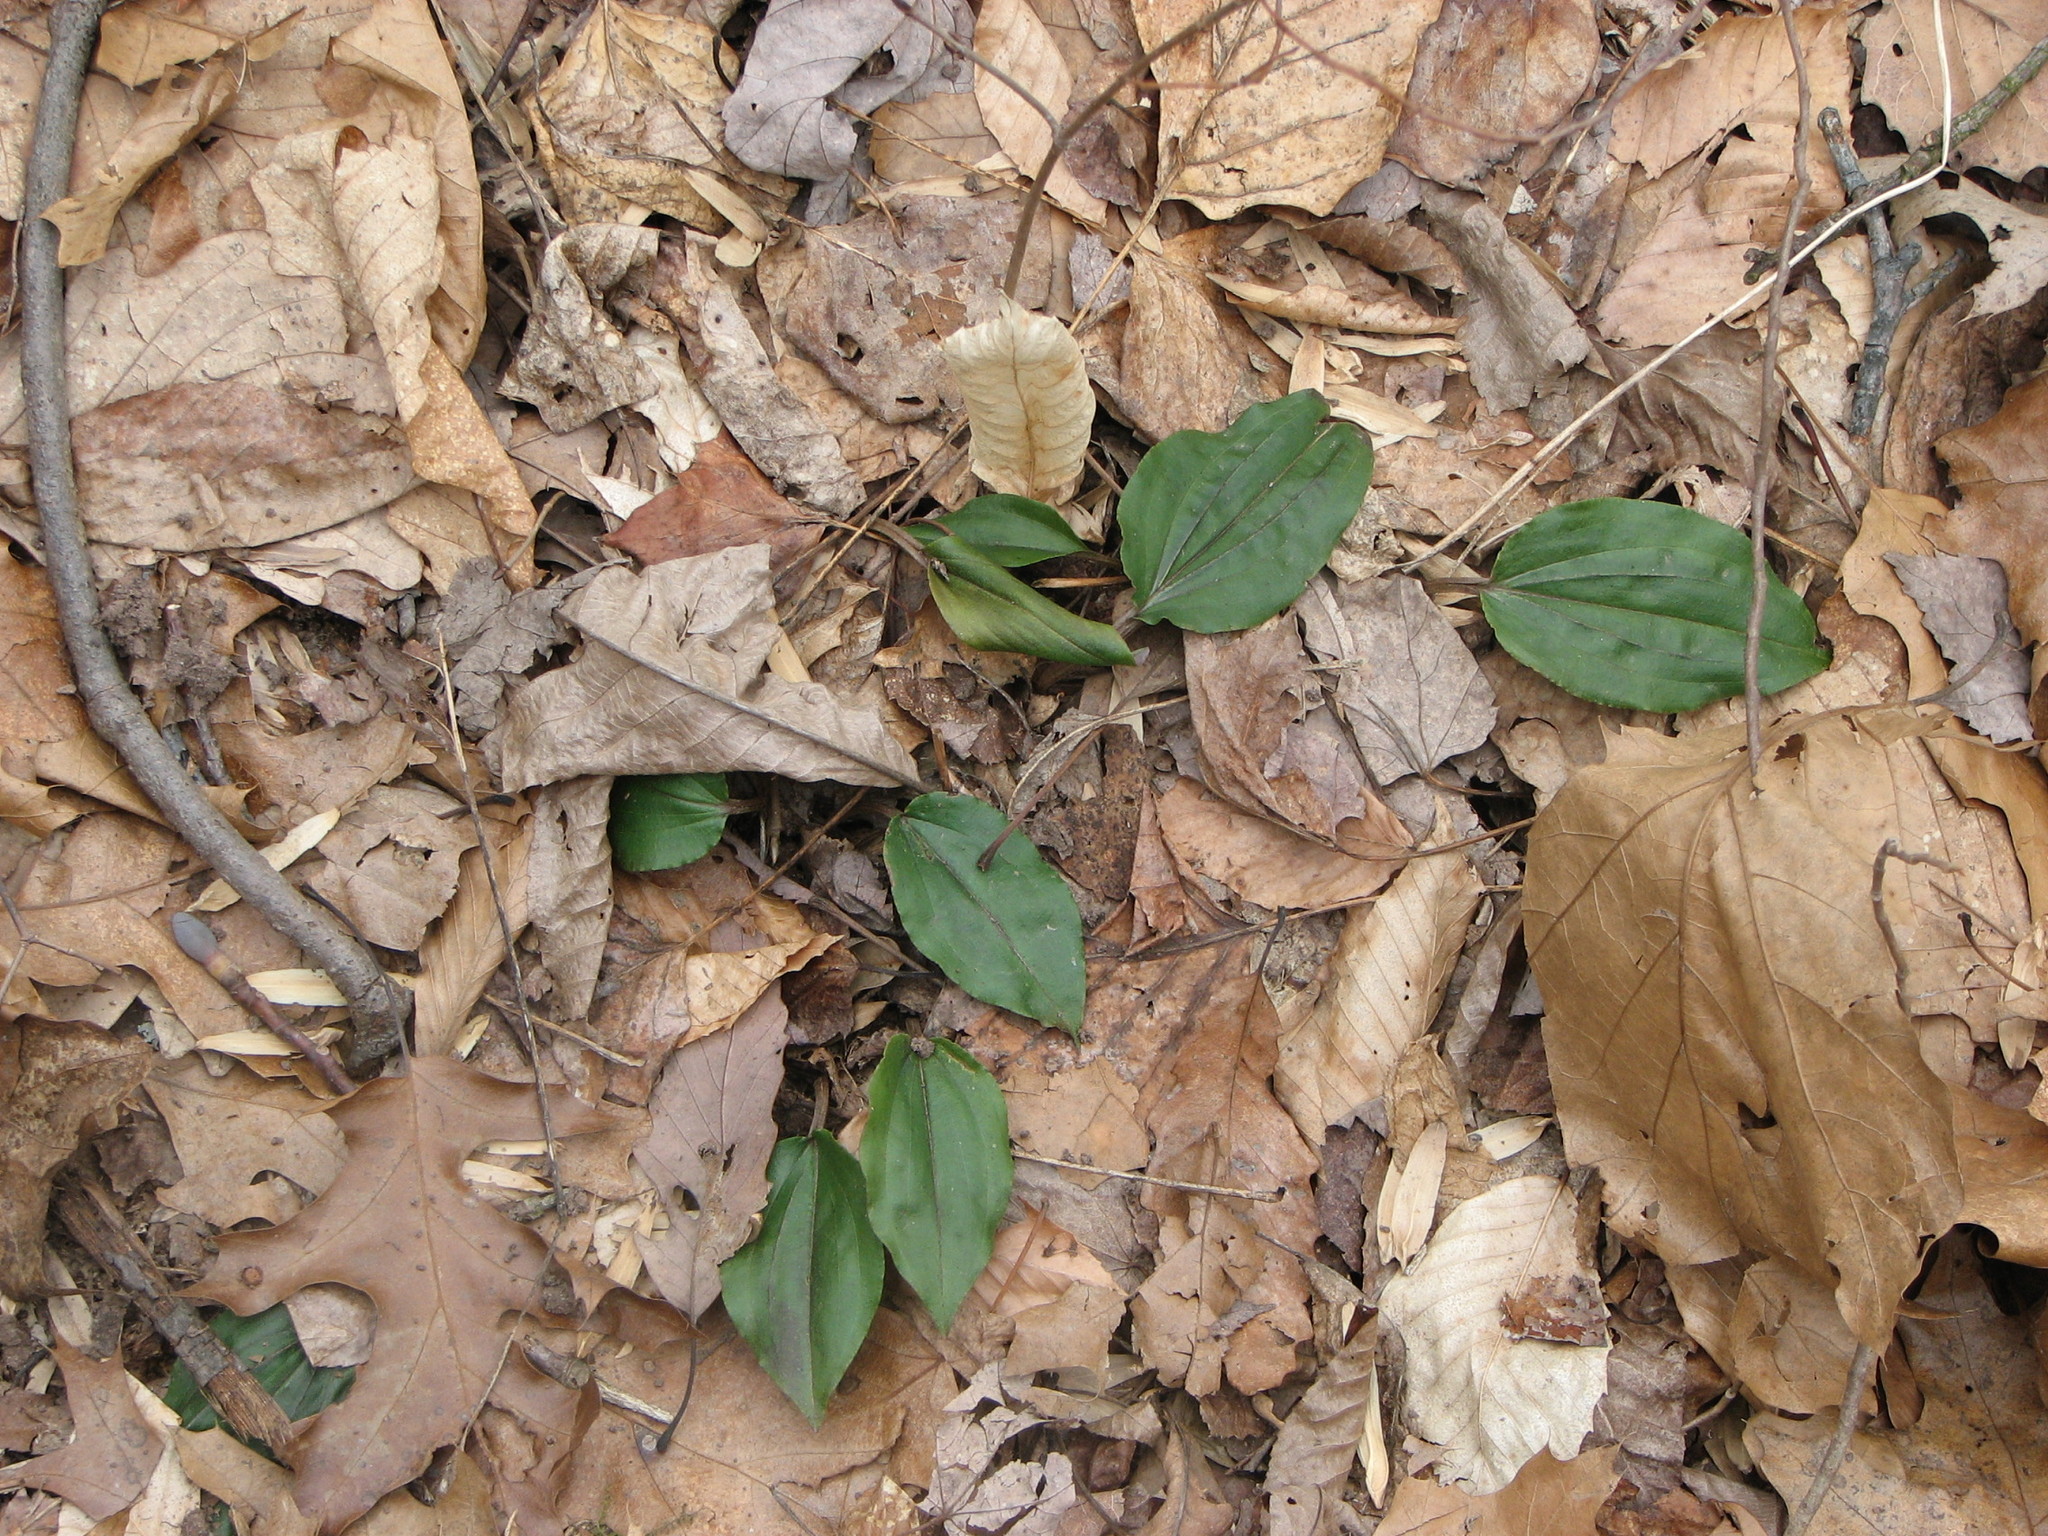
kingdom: Plantae
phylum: Tracheophyta
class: Liliopsida
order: Asparagales
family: Orchidaceae
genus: Tipularia
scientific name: Tipularia discolor
